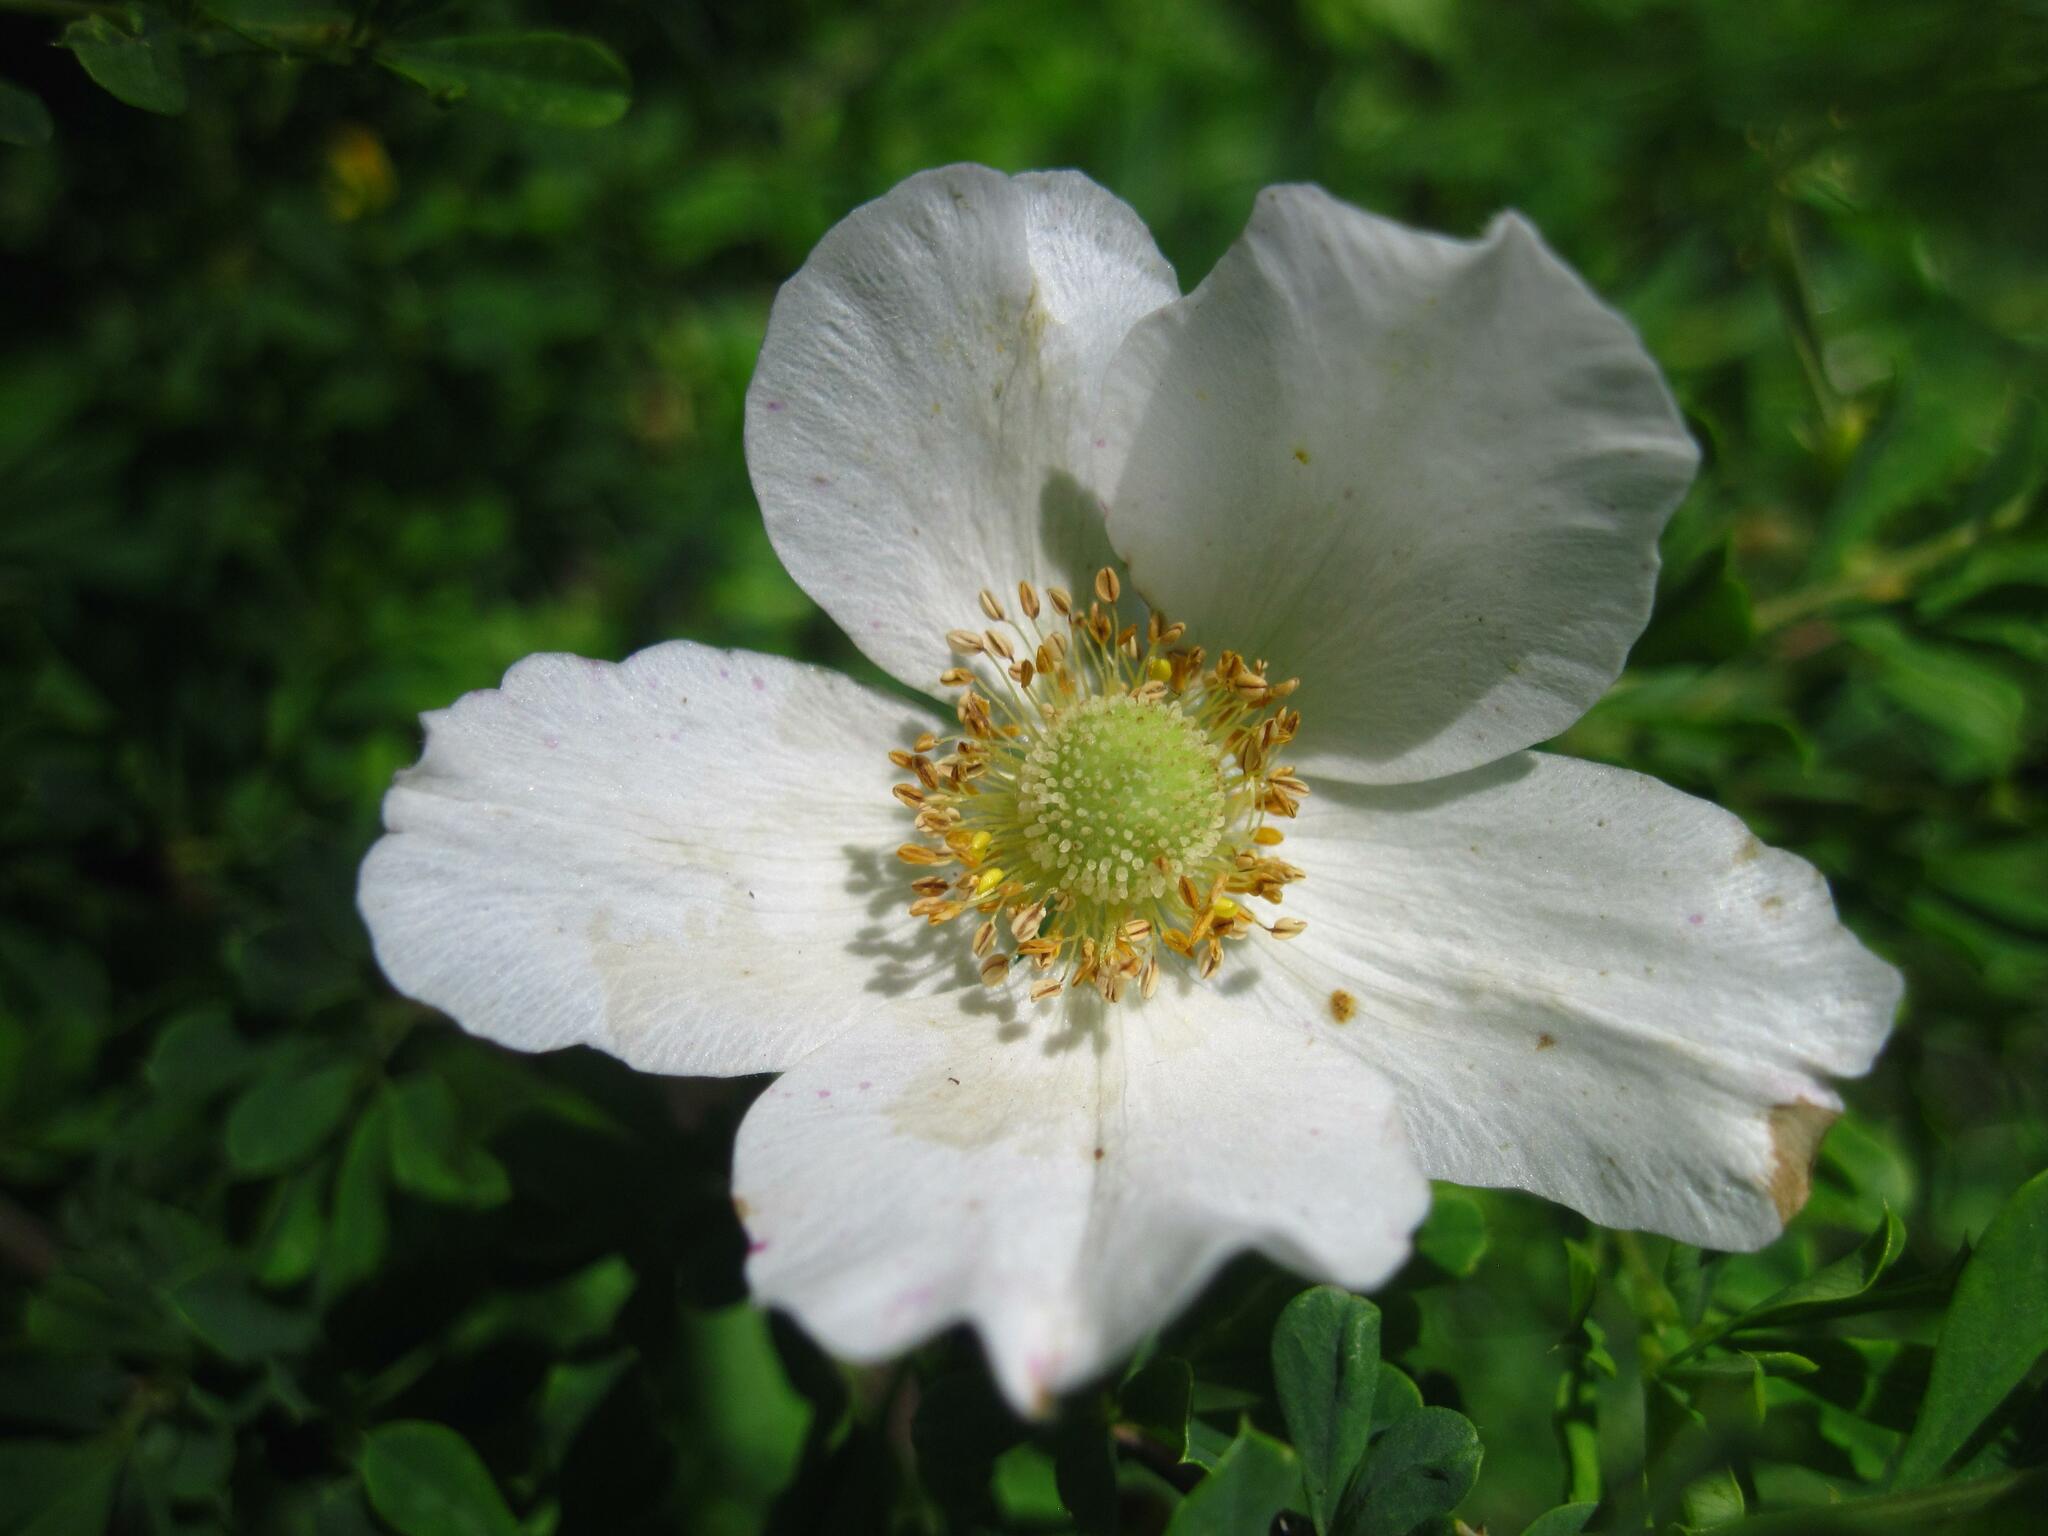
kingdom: Plantae
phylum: Tracheophyta
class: Magnoliopsida
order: Ranunculales
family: Ranunculaceae
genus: Anemone
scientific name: Anemone sylvestris
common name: Snowdrop anemone
